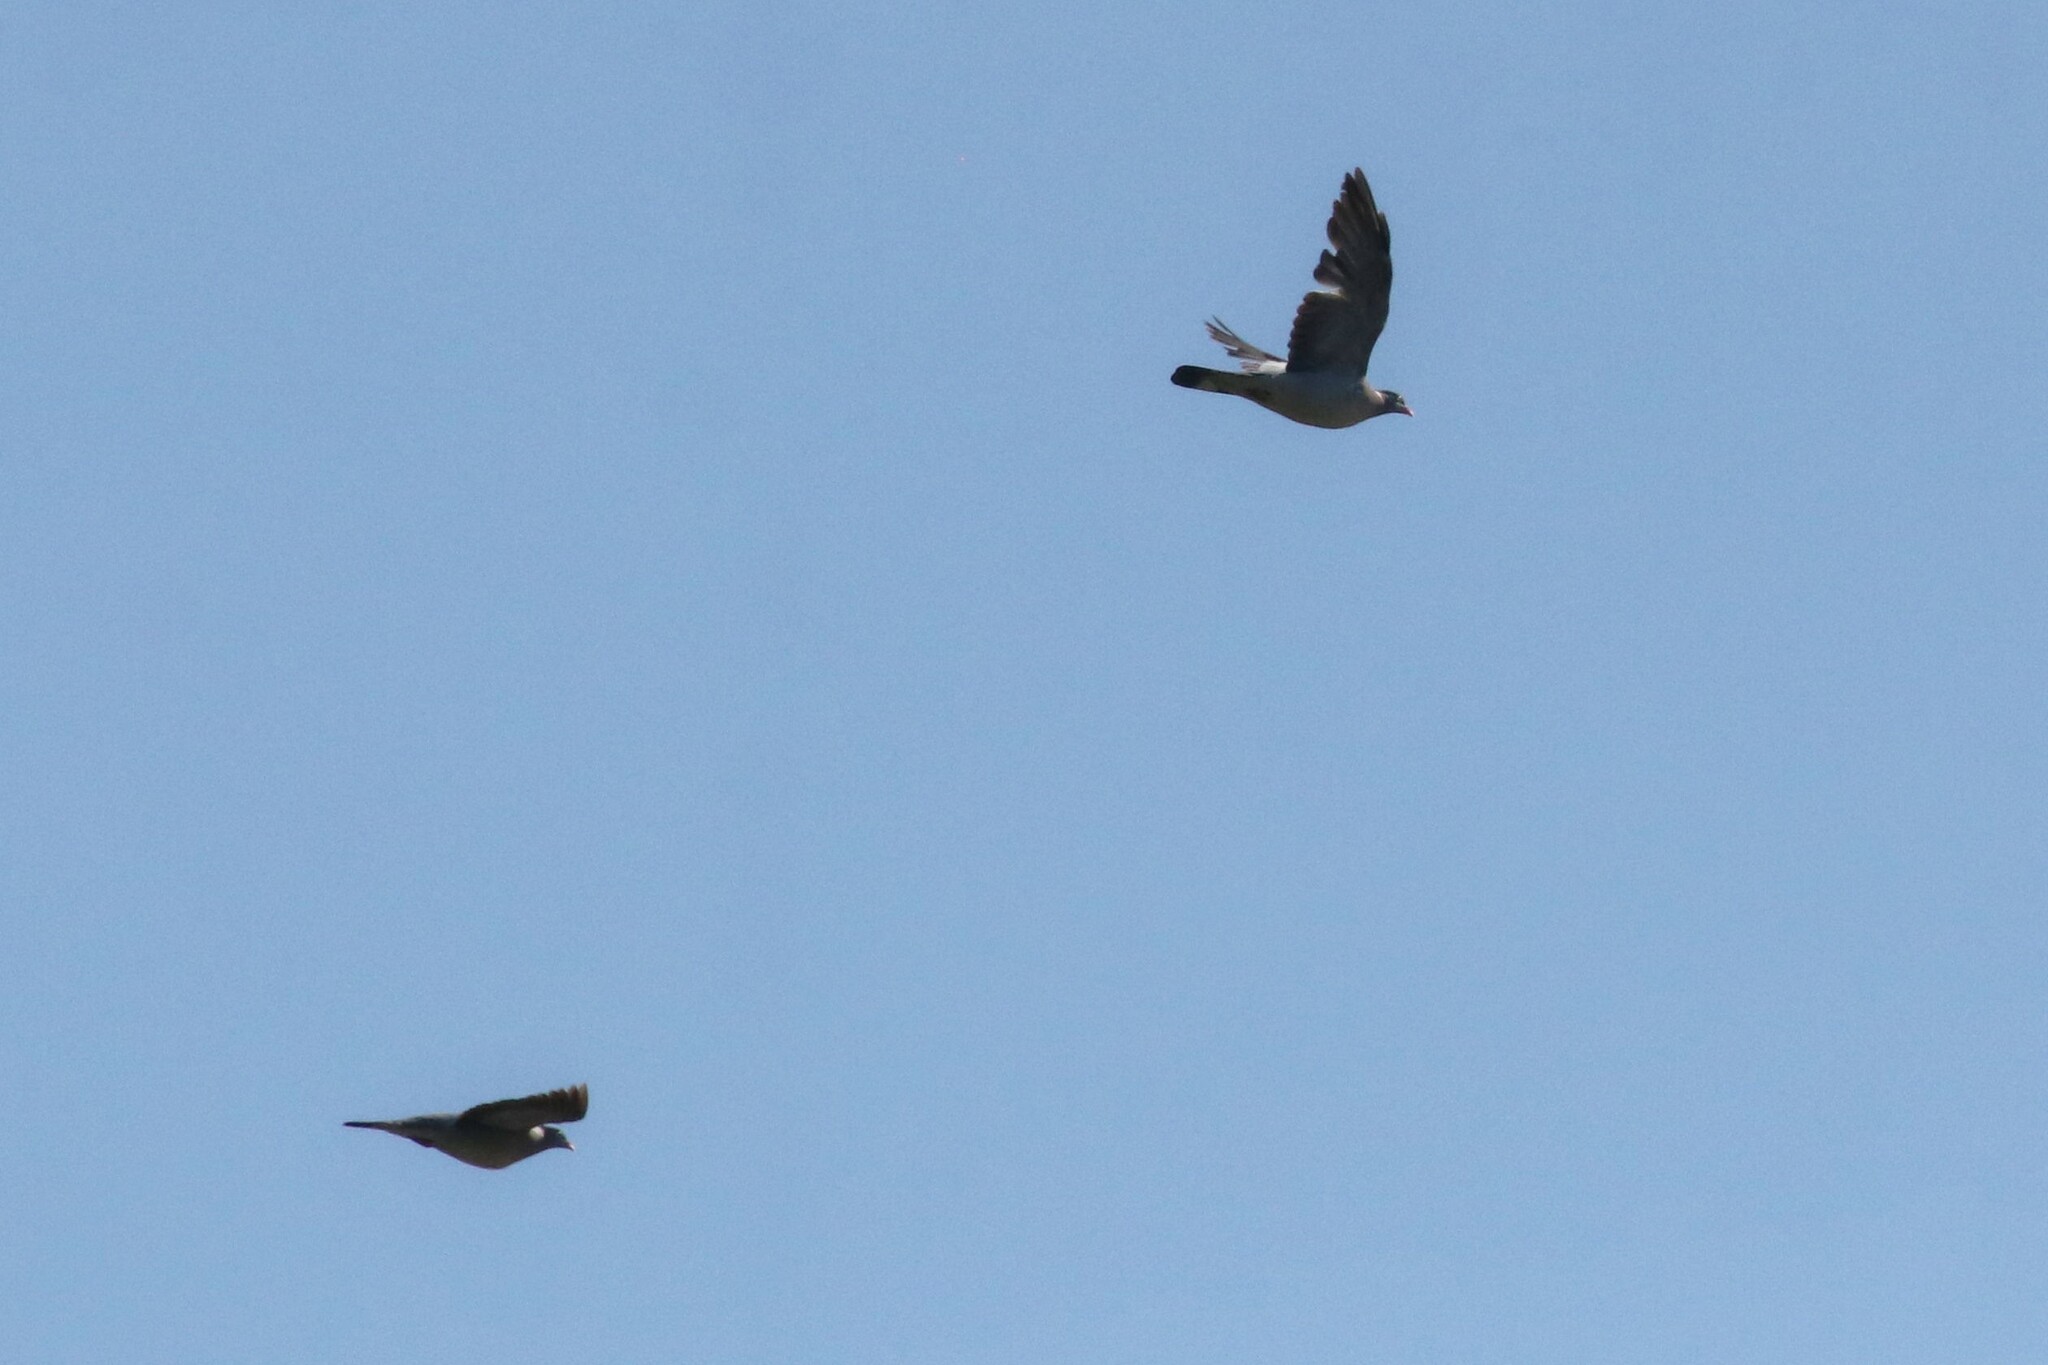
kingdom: Animalia
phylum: Chordata
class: Aves
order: Columbiformes
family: Columbidae
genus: Columba
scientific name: Columba palumbus
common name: Common wood pigeon
